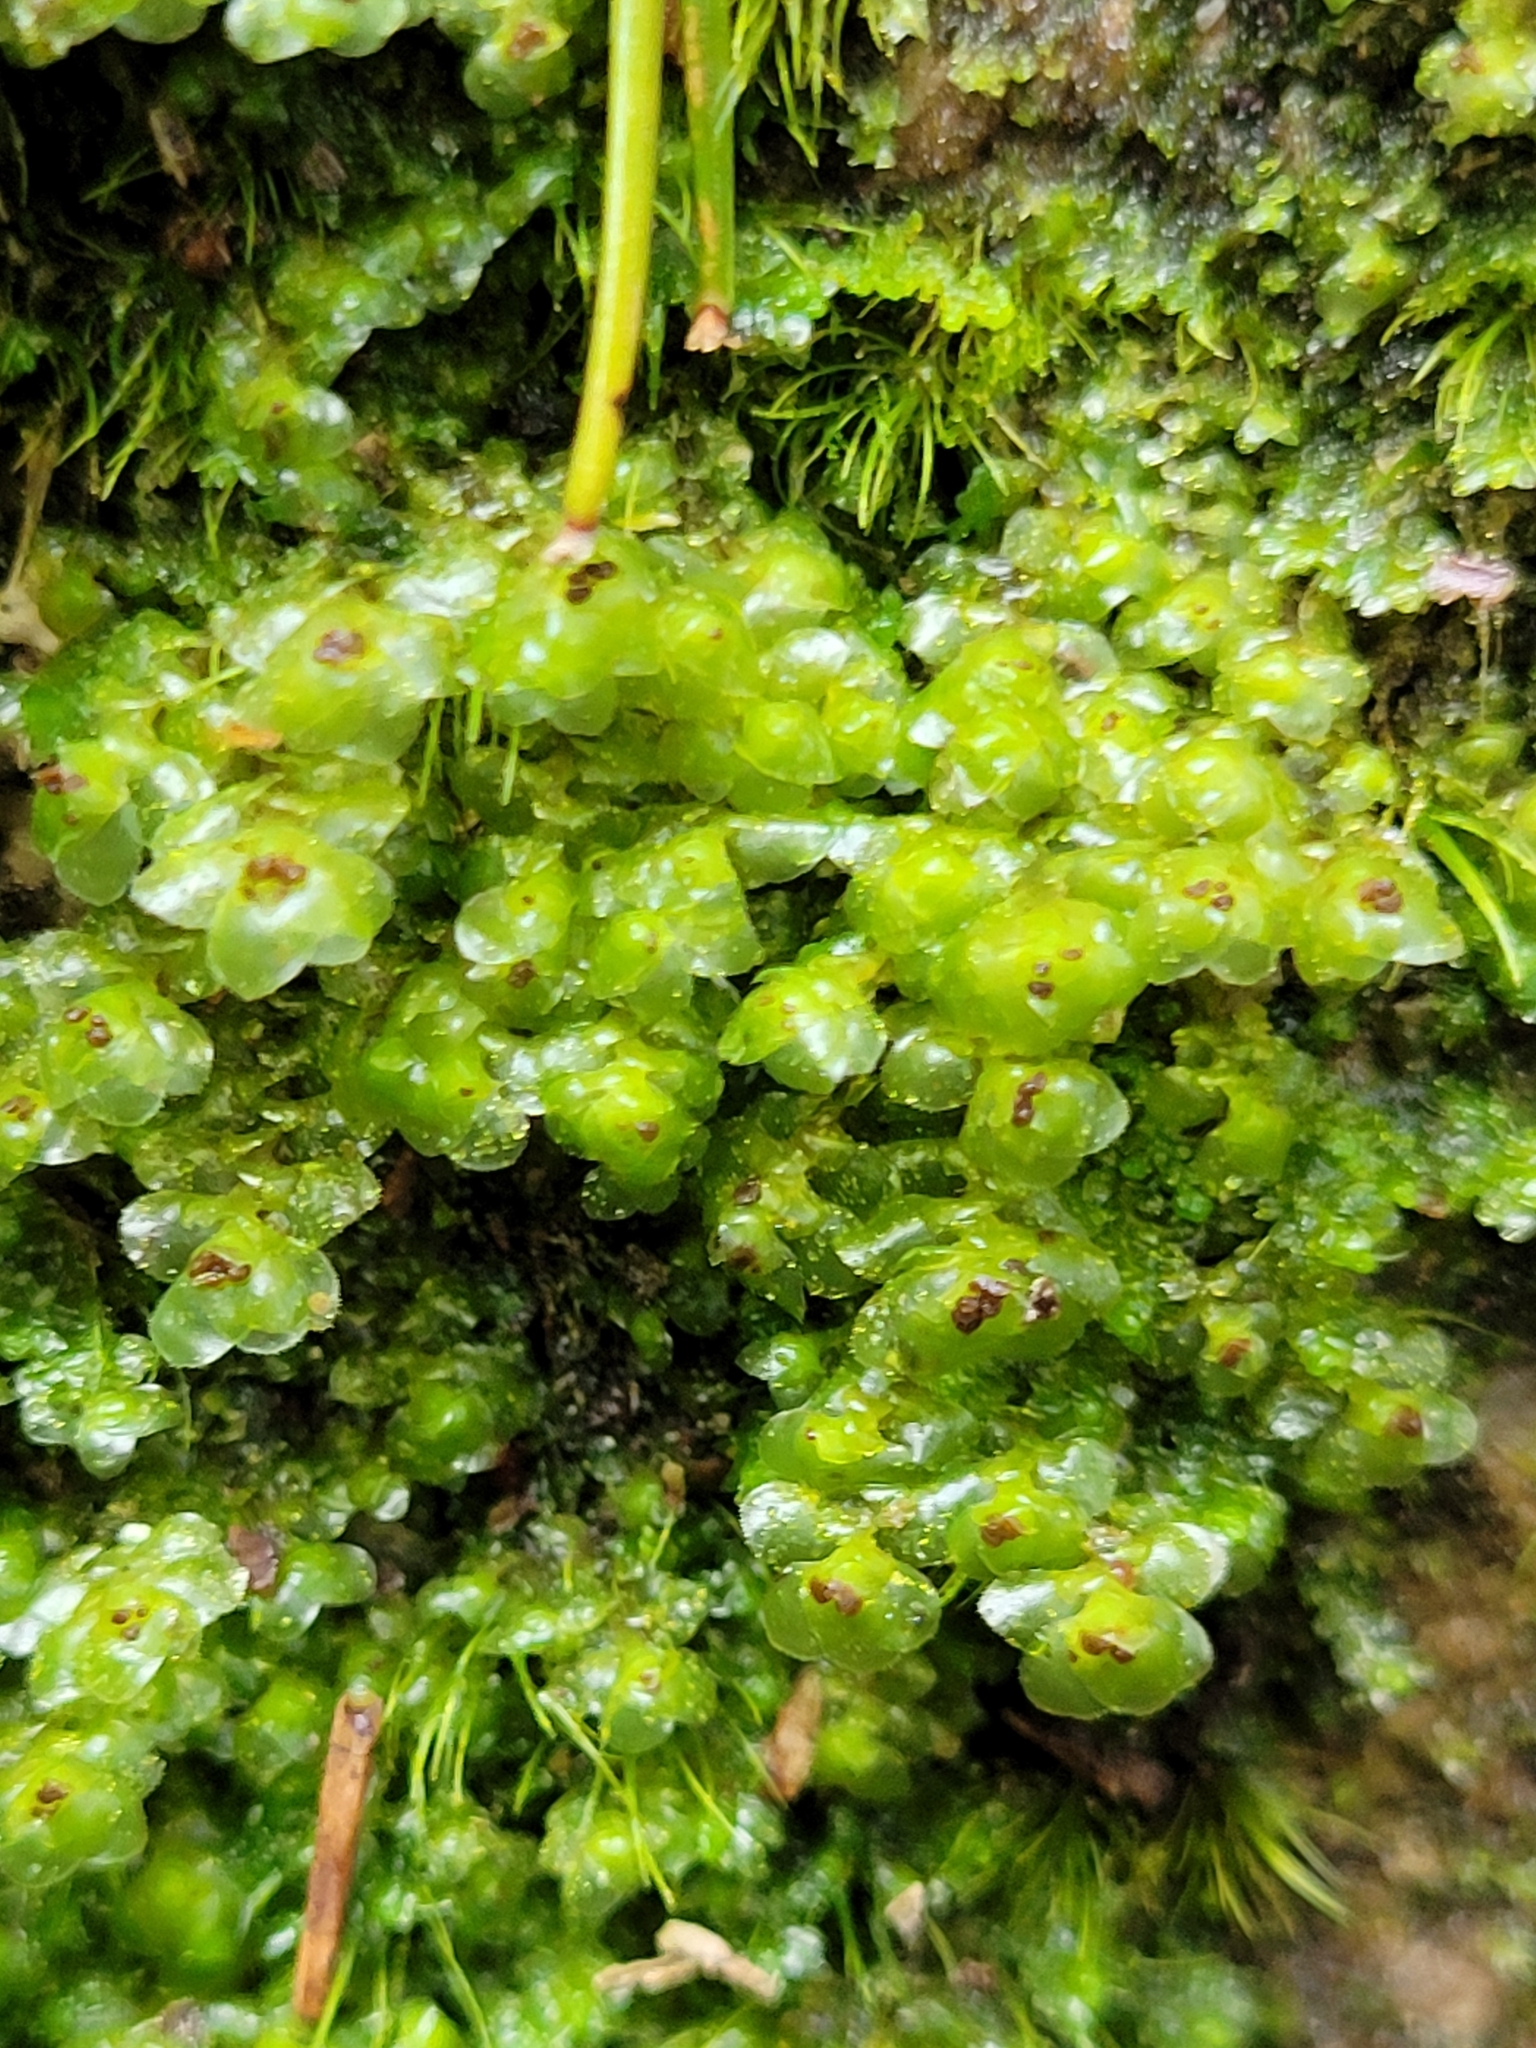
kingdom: Plantae
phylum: Marchantiophyta
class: Jungermanniopsida
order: Jungermanniales
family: Scapaniaceae
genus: Scapania
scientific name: Scapania nemorea
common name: Grove earwort
